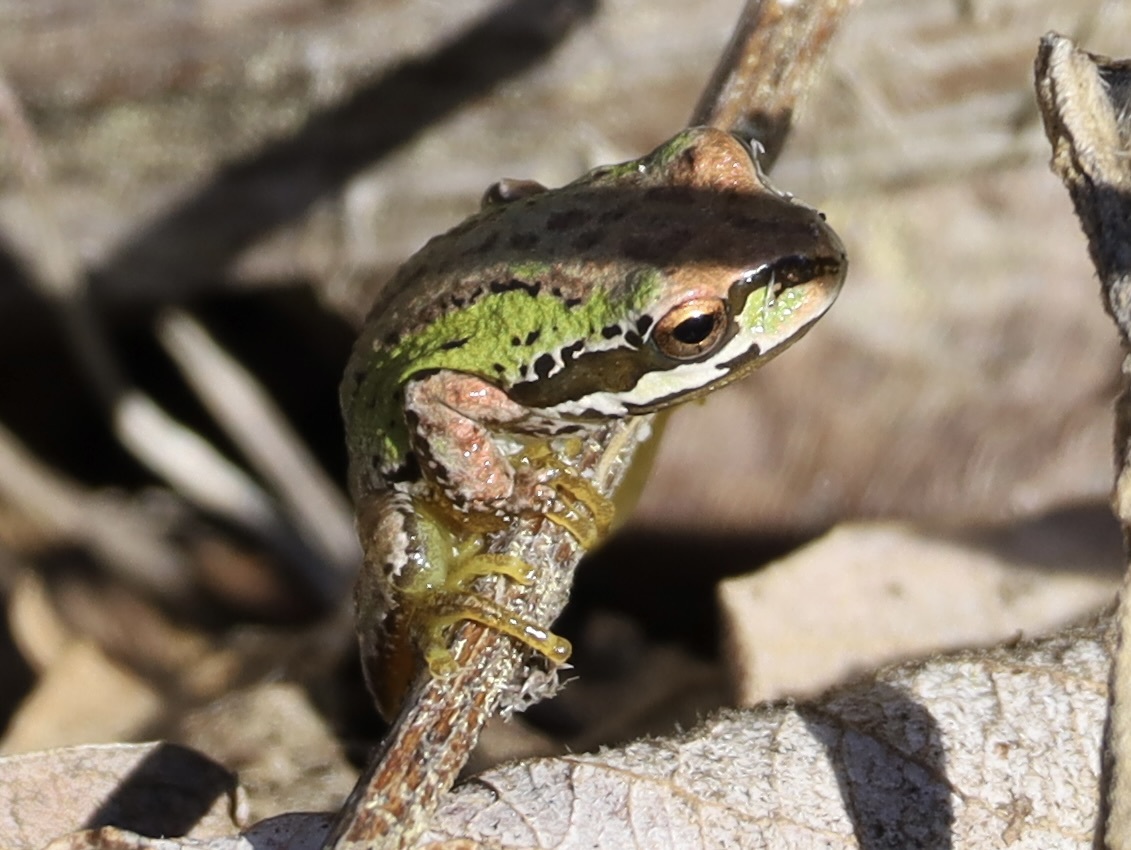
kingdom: Animalia
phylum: Chordata
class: Amphibia
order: Anura
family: Hylidae
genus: Pseudacris
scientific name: Pseudacris regilla
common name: Pacific chorus frog
